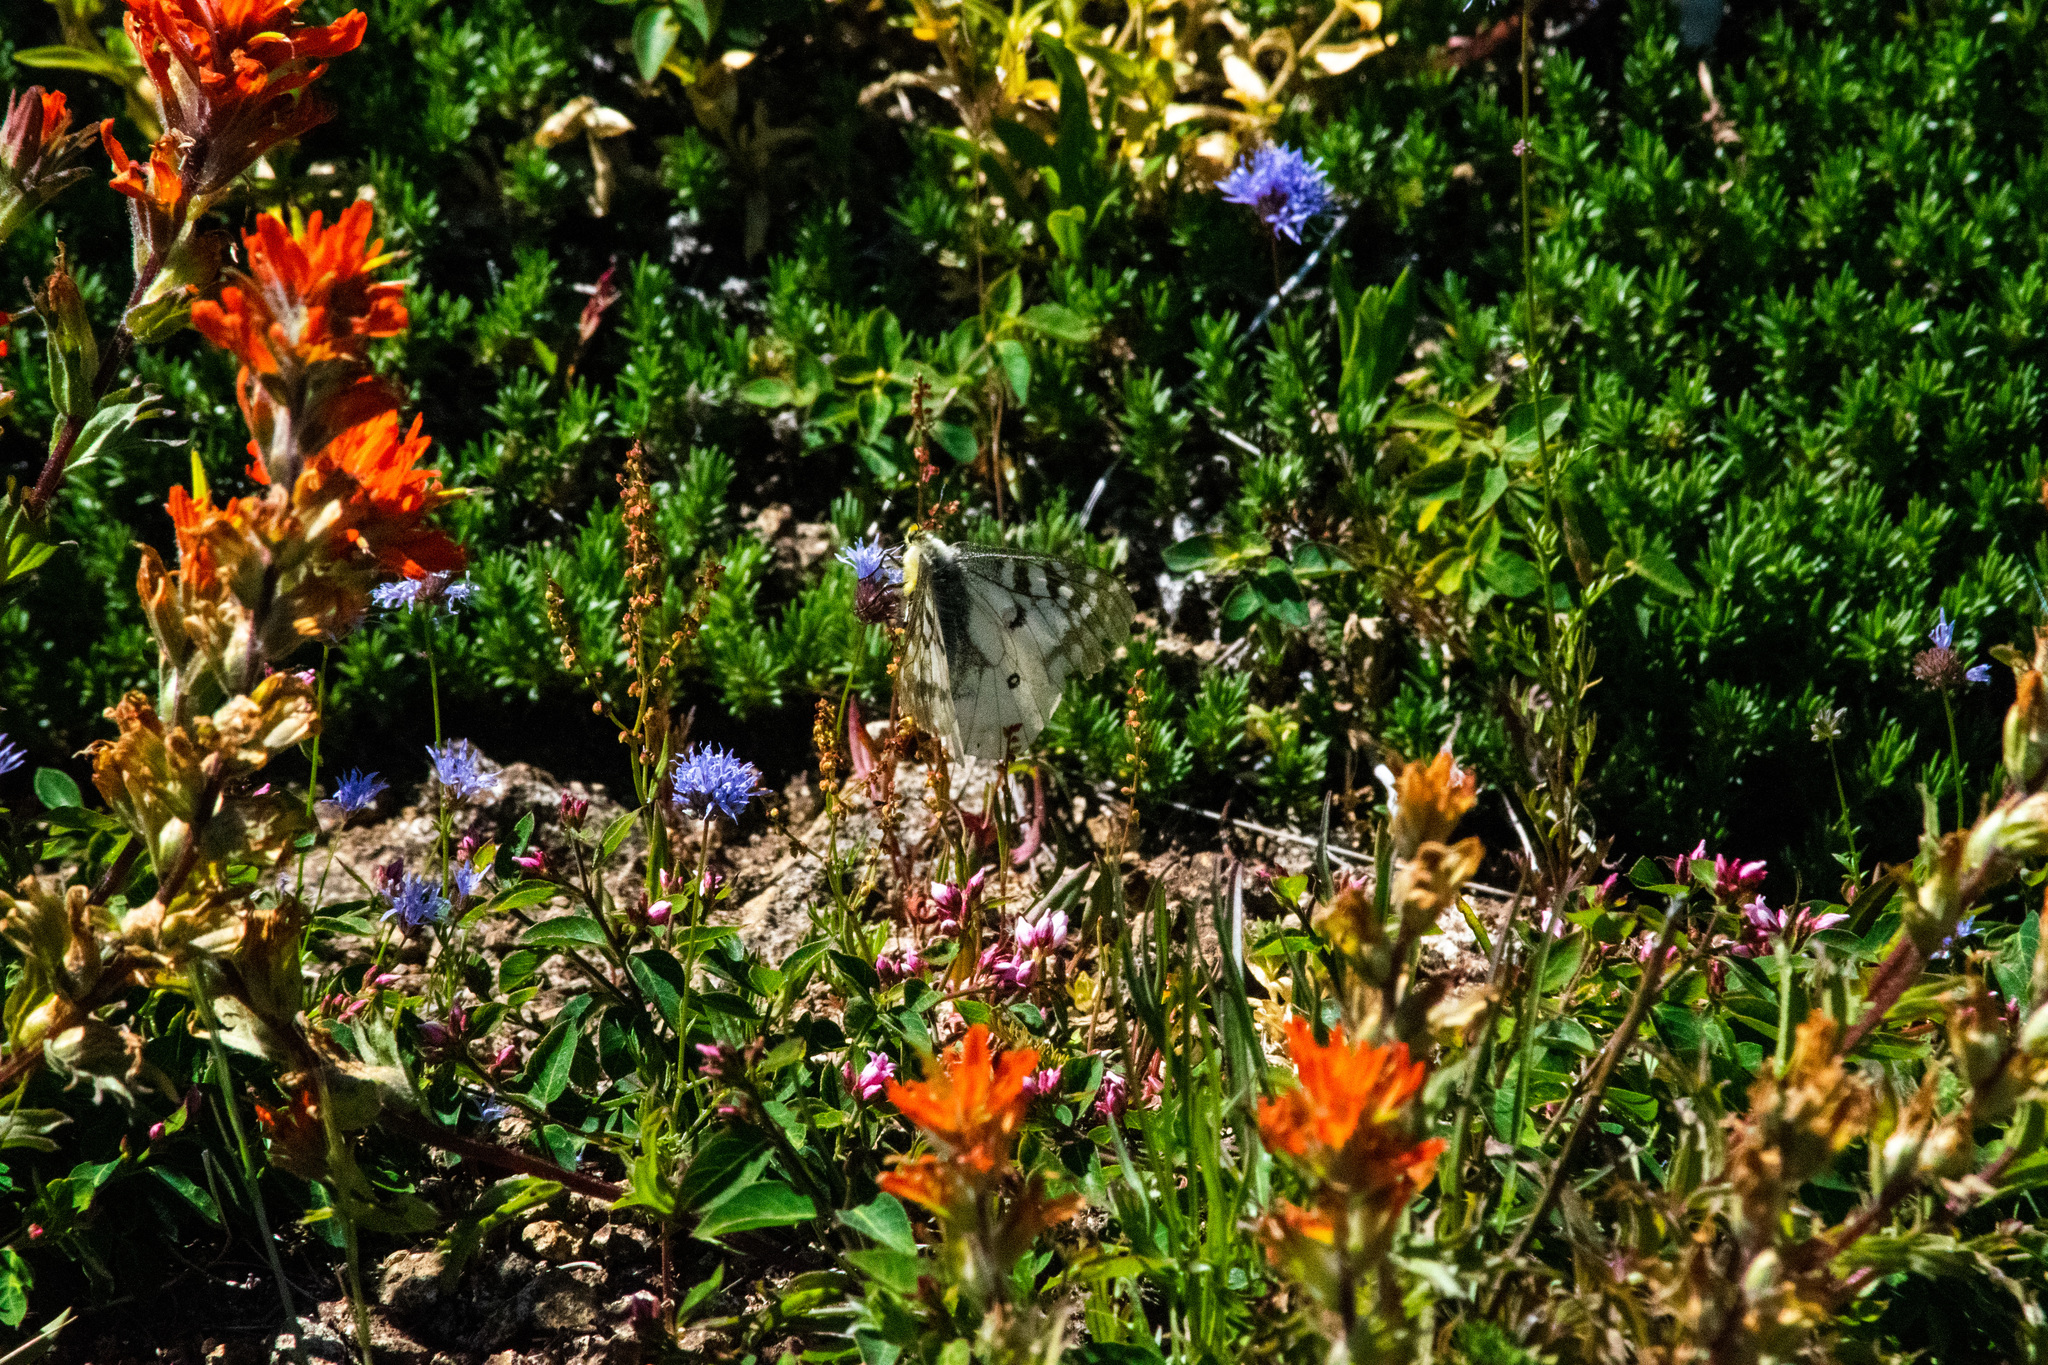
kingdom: Animalia
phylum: Arthropoda
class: Insecta
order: Lepidoptera
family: Papilionidae
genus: Parnassius
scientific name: Parnassius clodius
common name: American apollo
